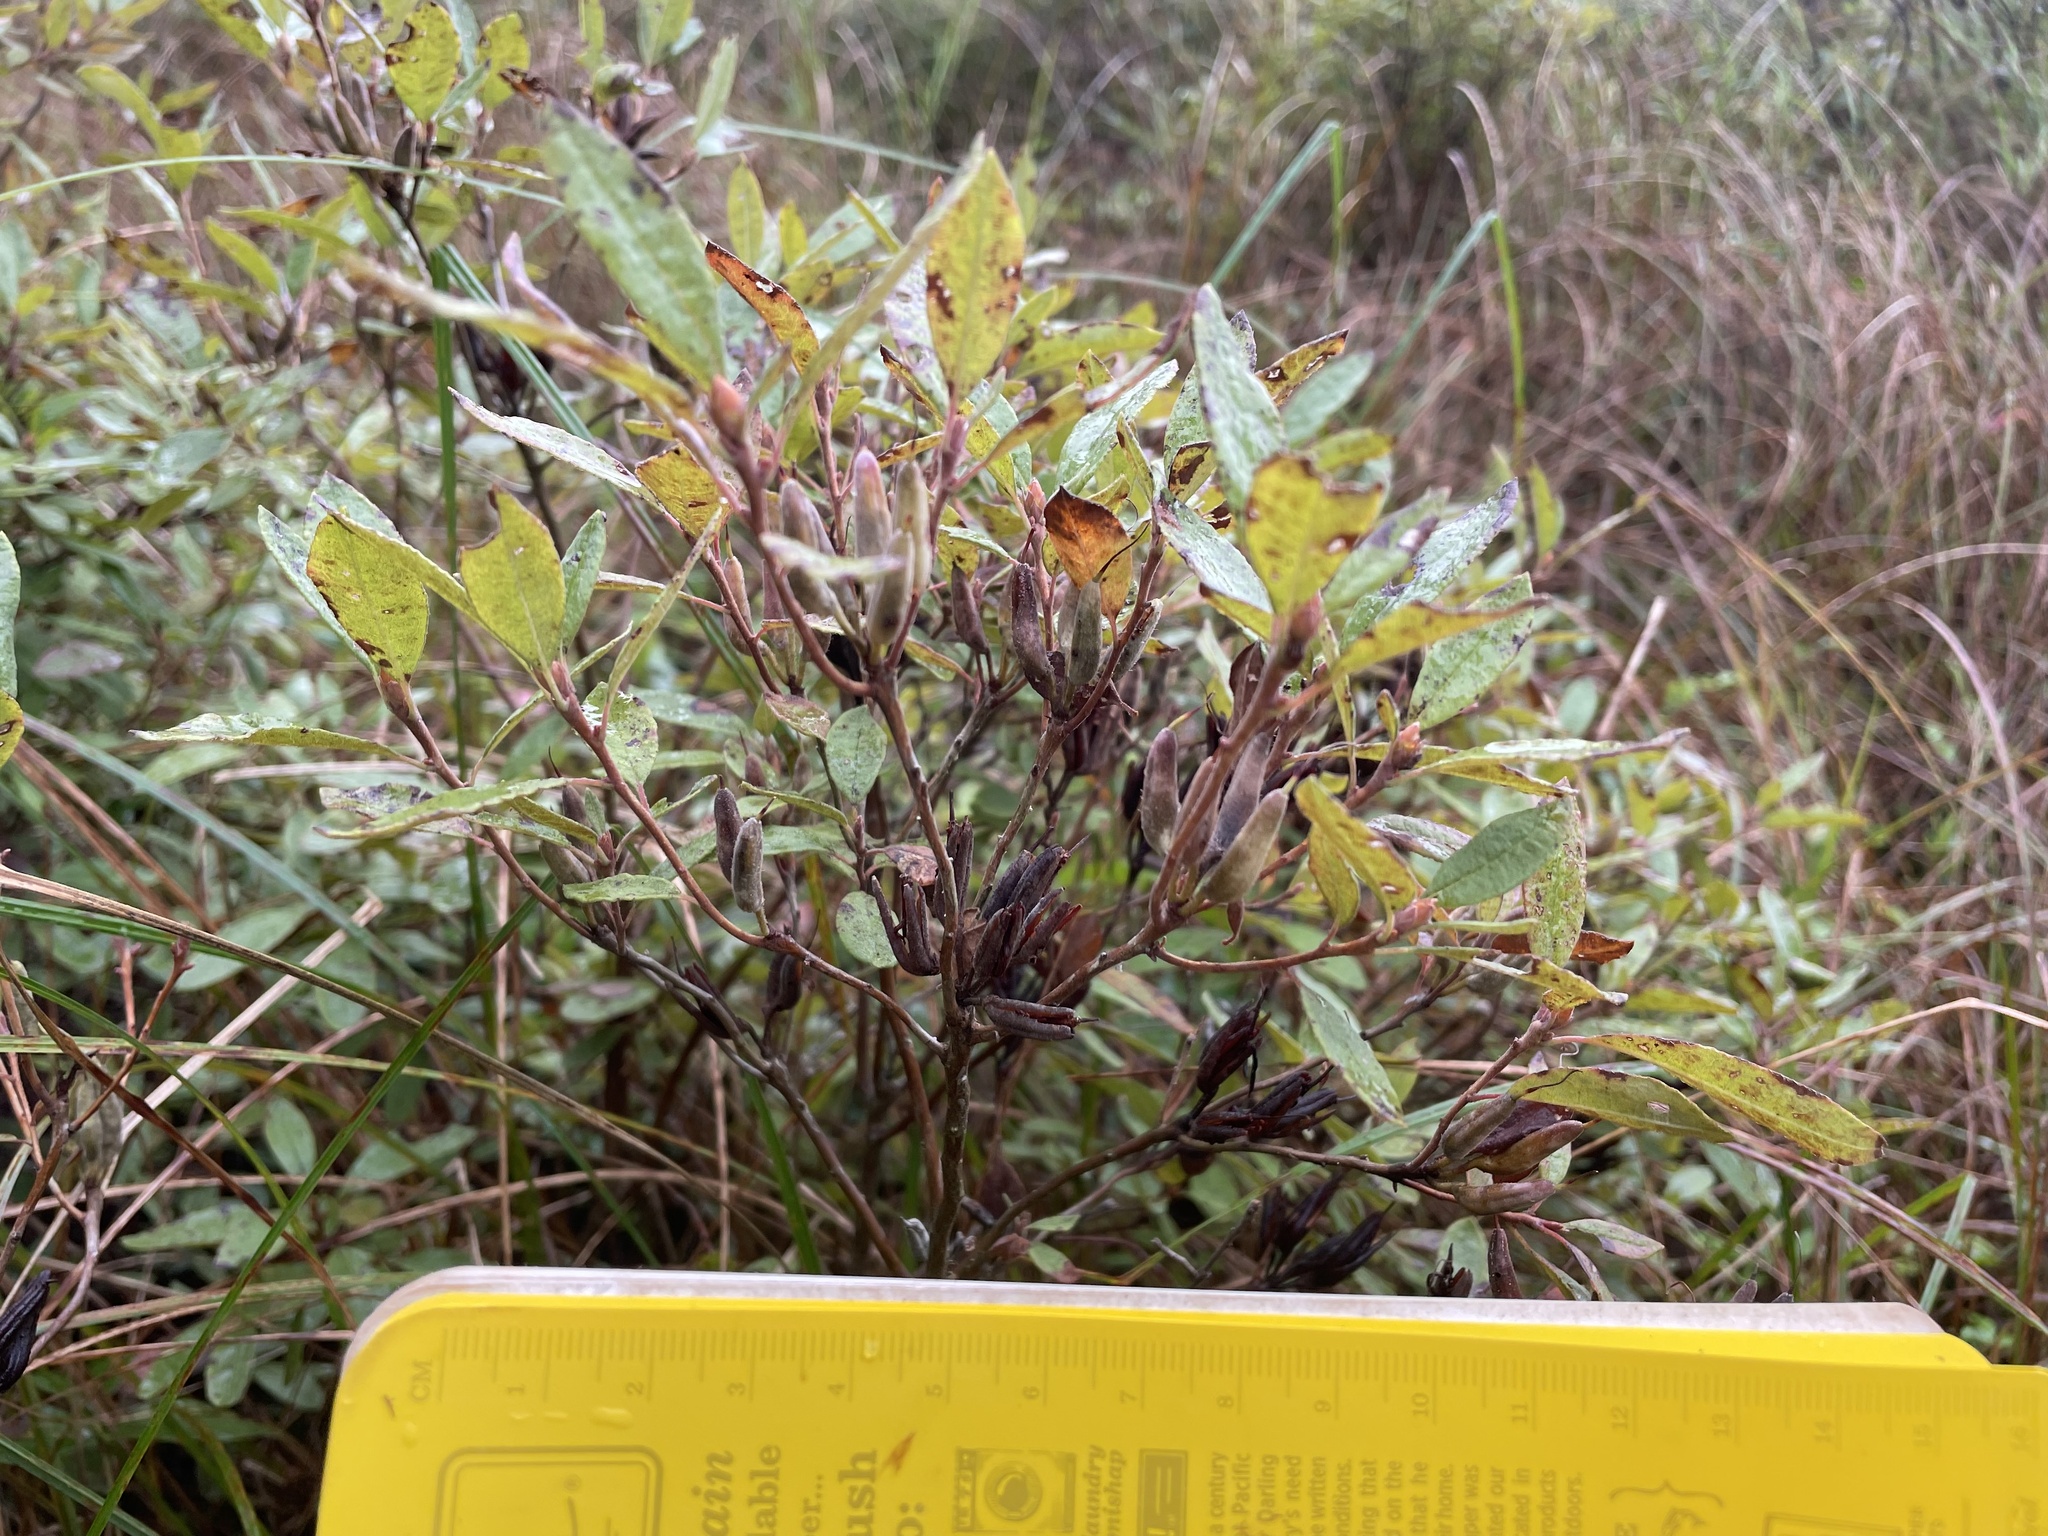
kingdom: Plantae
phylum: Tracheophyta
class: Magnoliopsida
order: Ericales
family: Ericaceae
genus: Rhododendron
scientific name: Rhododendron canadense
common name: Rhodora
